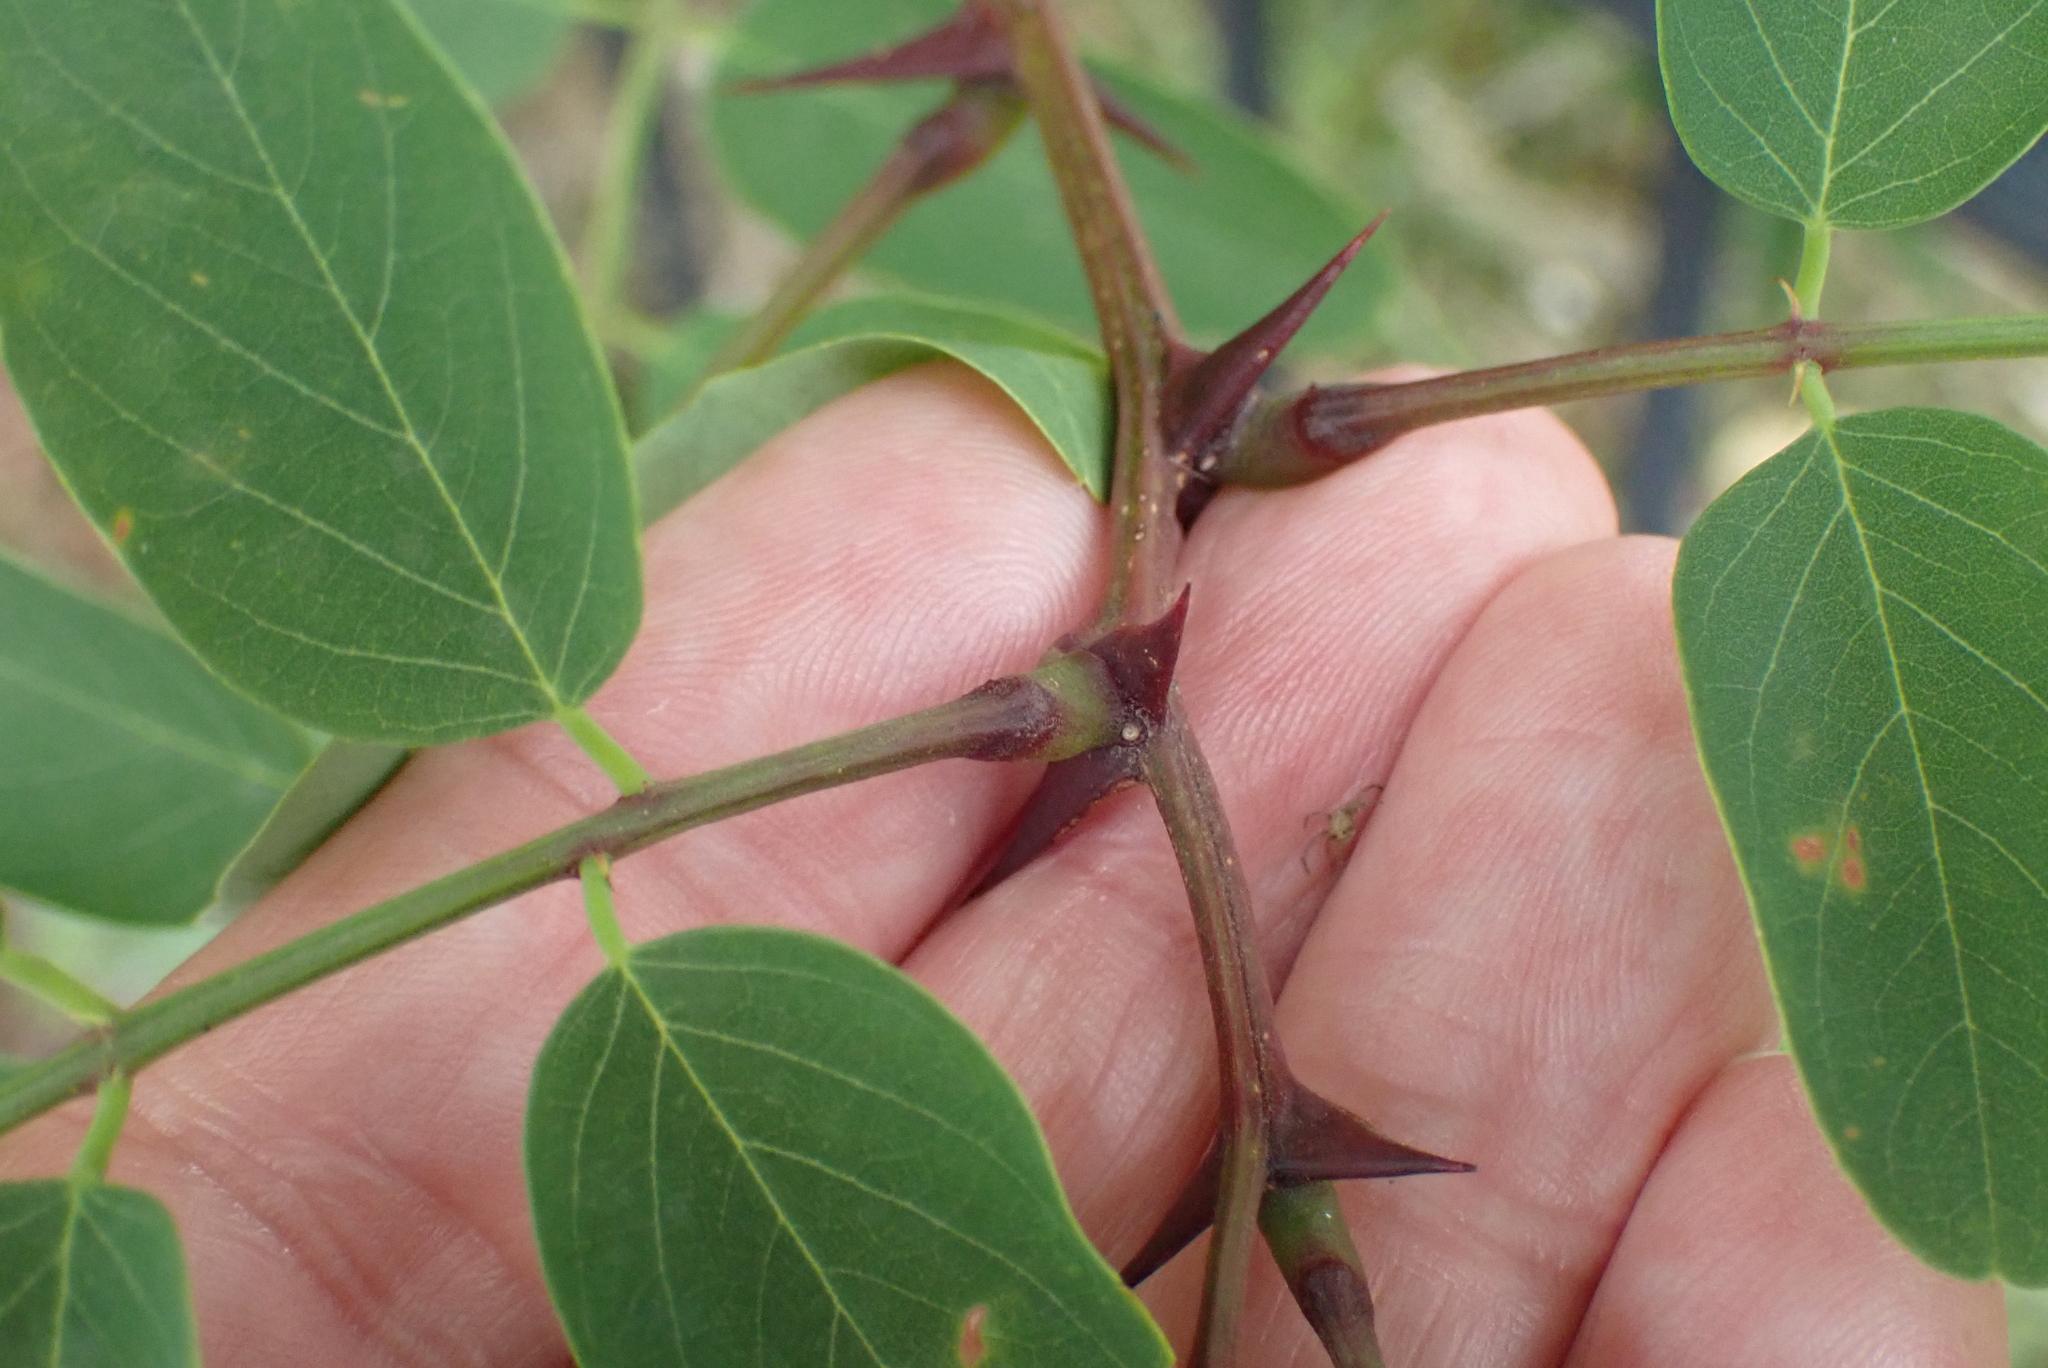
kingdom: Plantae
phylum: Tracheophyta
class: Magnoliopsida
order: Fabales
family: Fabaceae
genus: Robinia
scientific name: Robinia pseudoacacia
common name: Black locust
